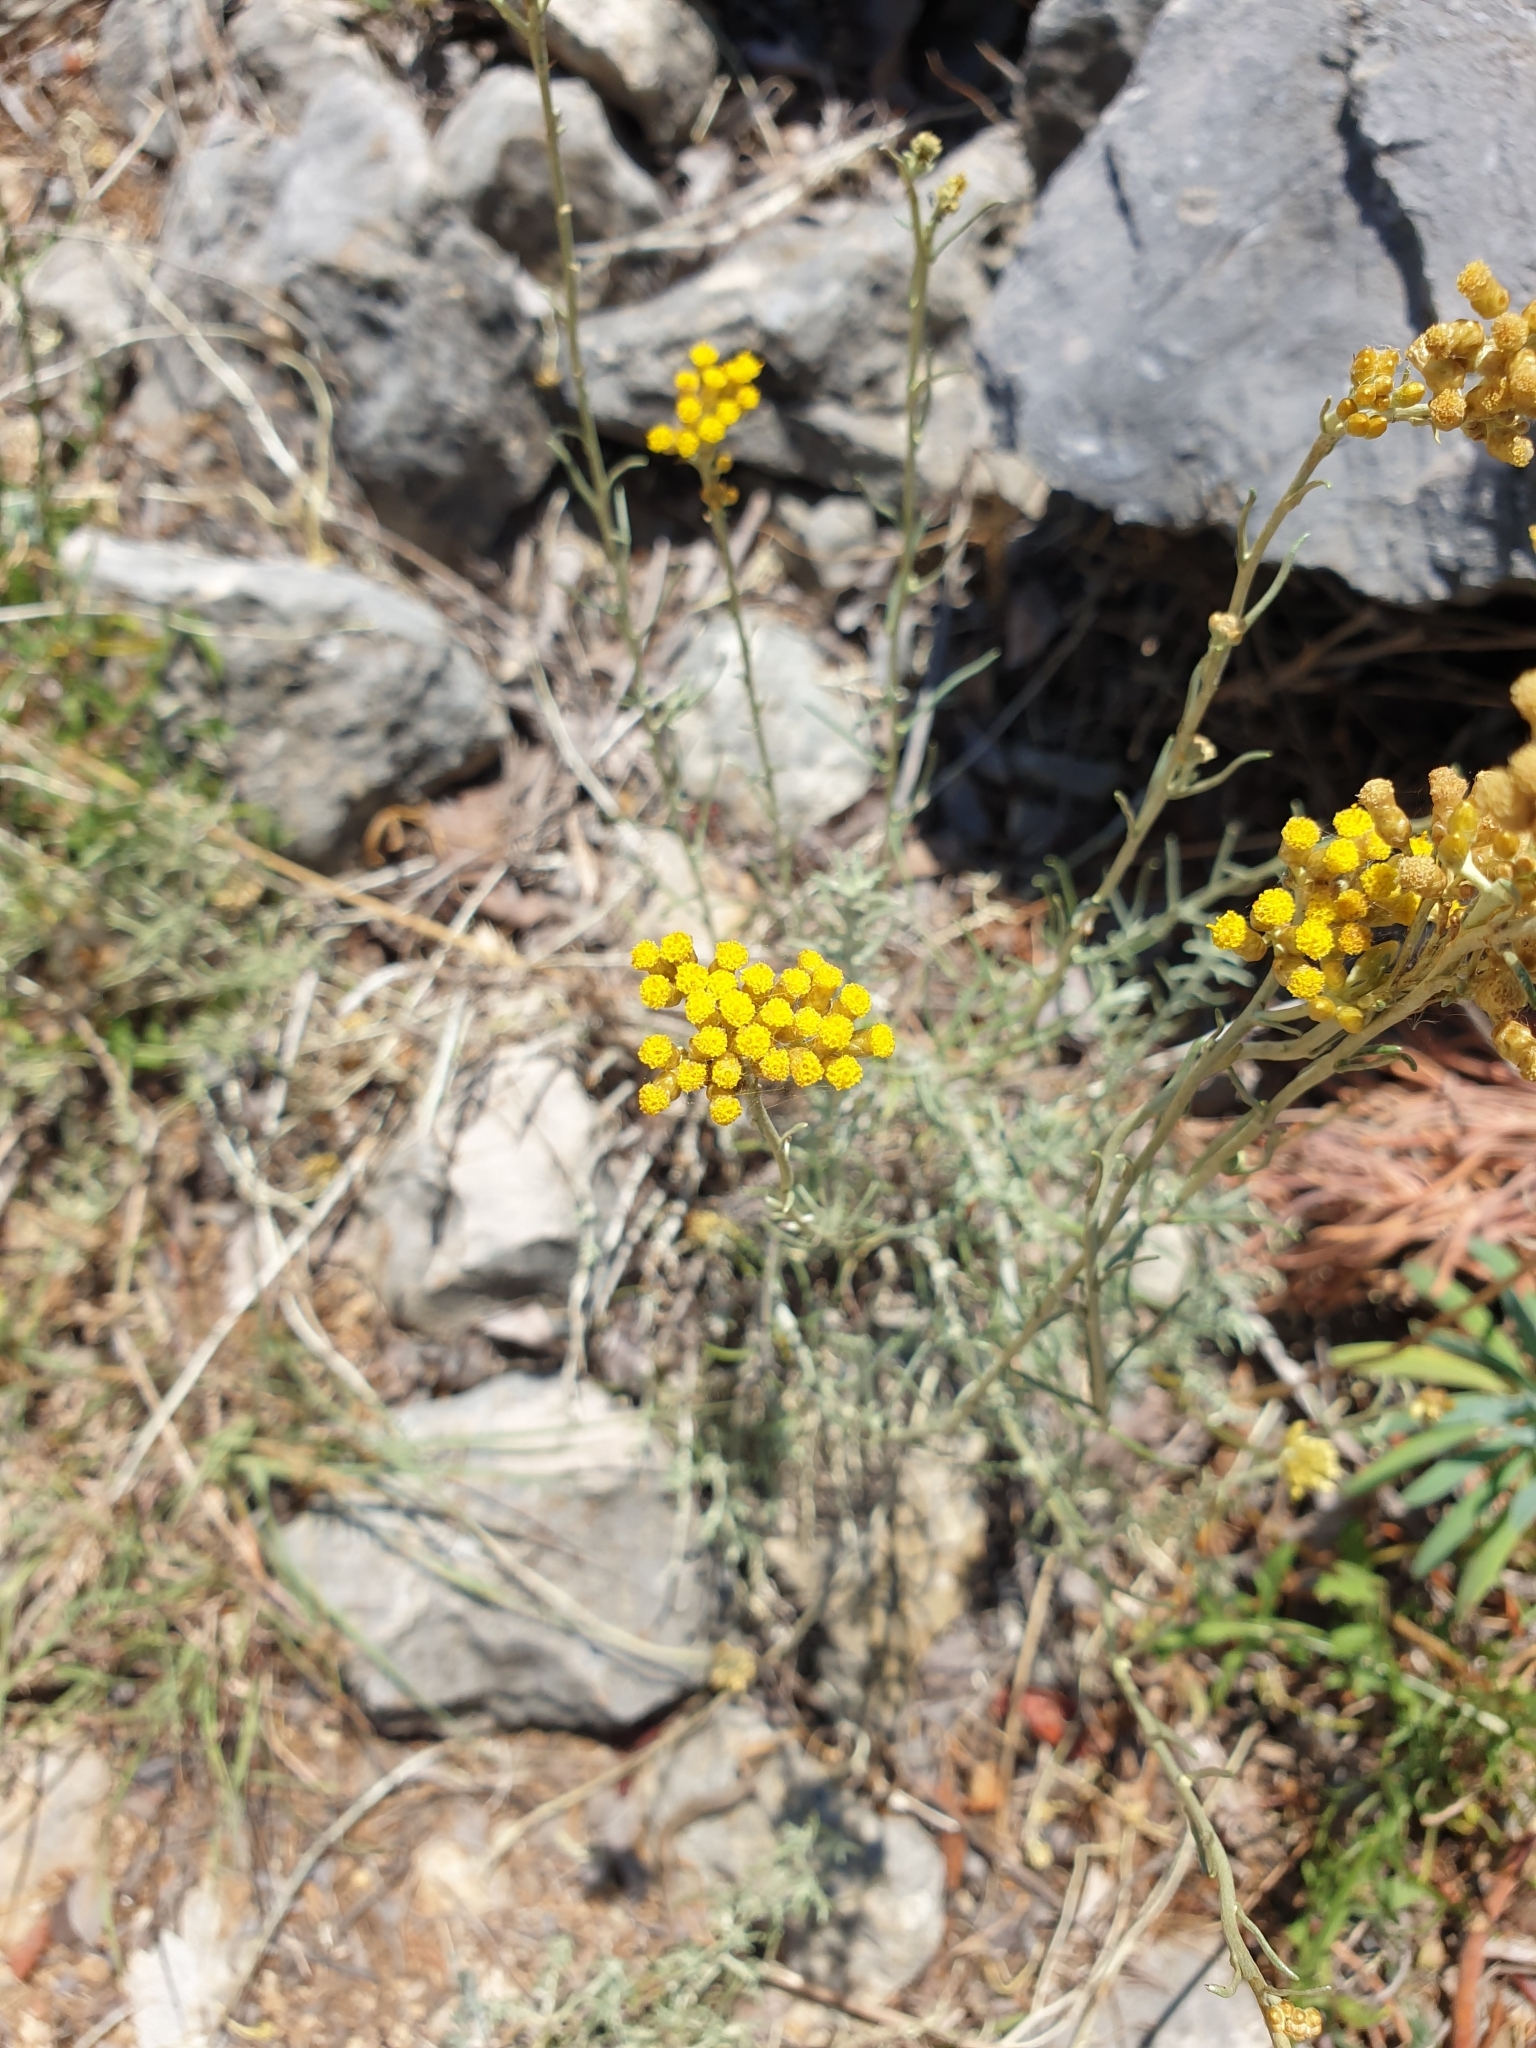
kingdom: Plantae
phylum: Tracheophyta
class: Magnoliopsida
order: Asterales
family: Asteraceae
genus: Helichrysum
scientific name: Helichrysum italicum
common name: Curryplant
